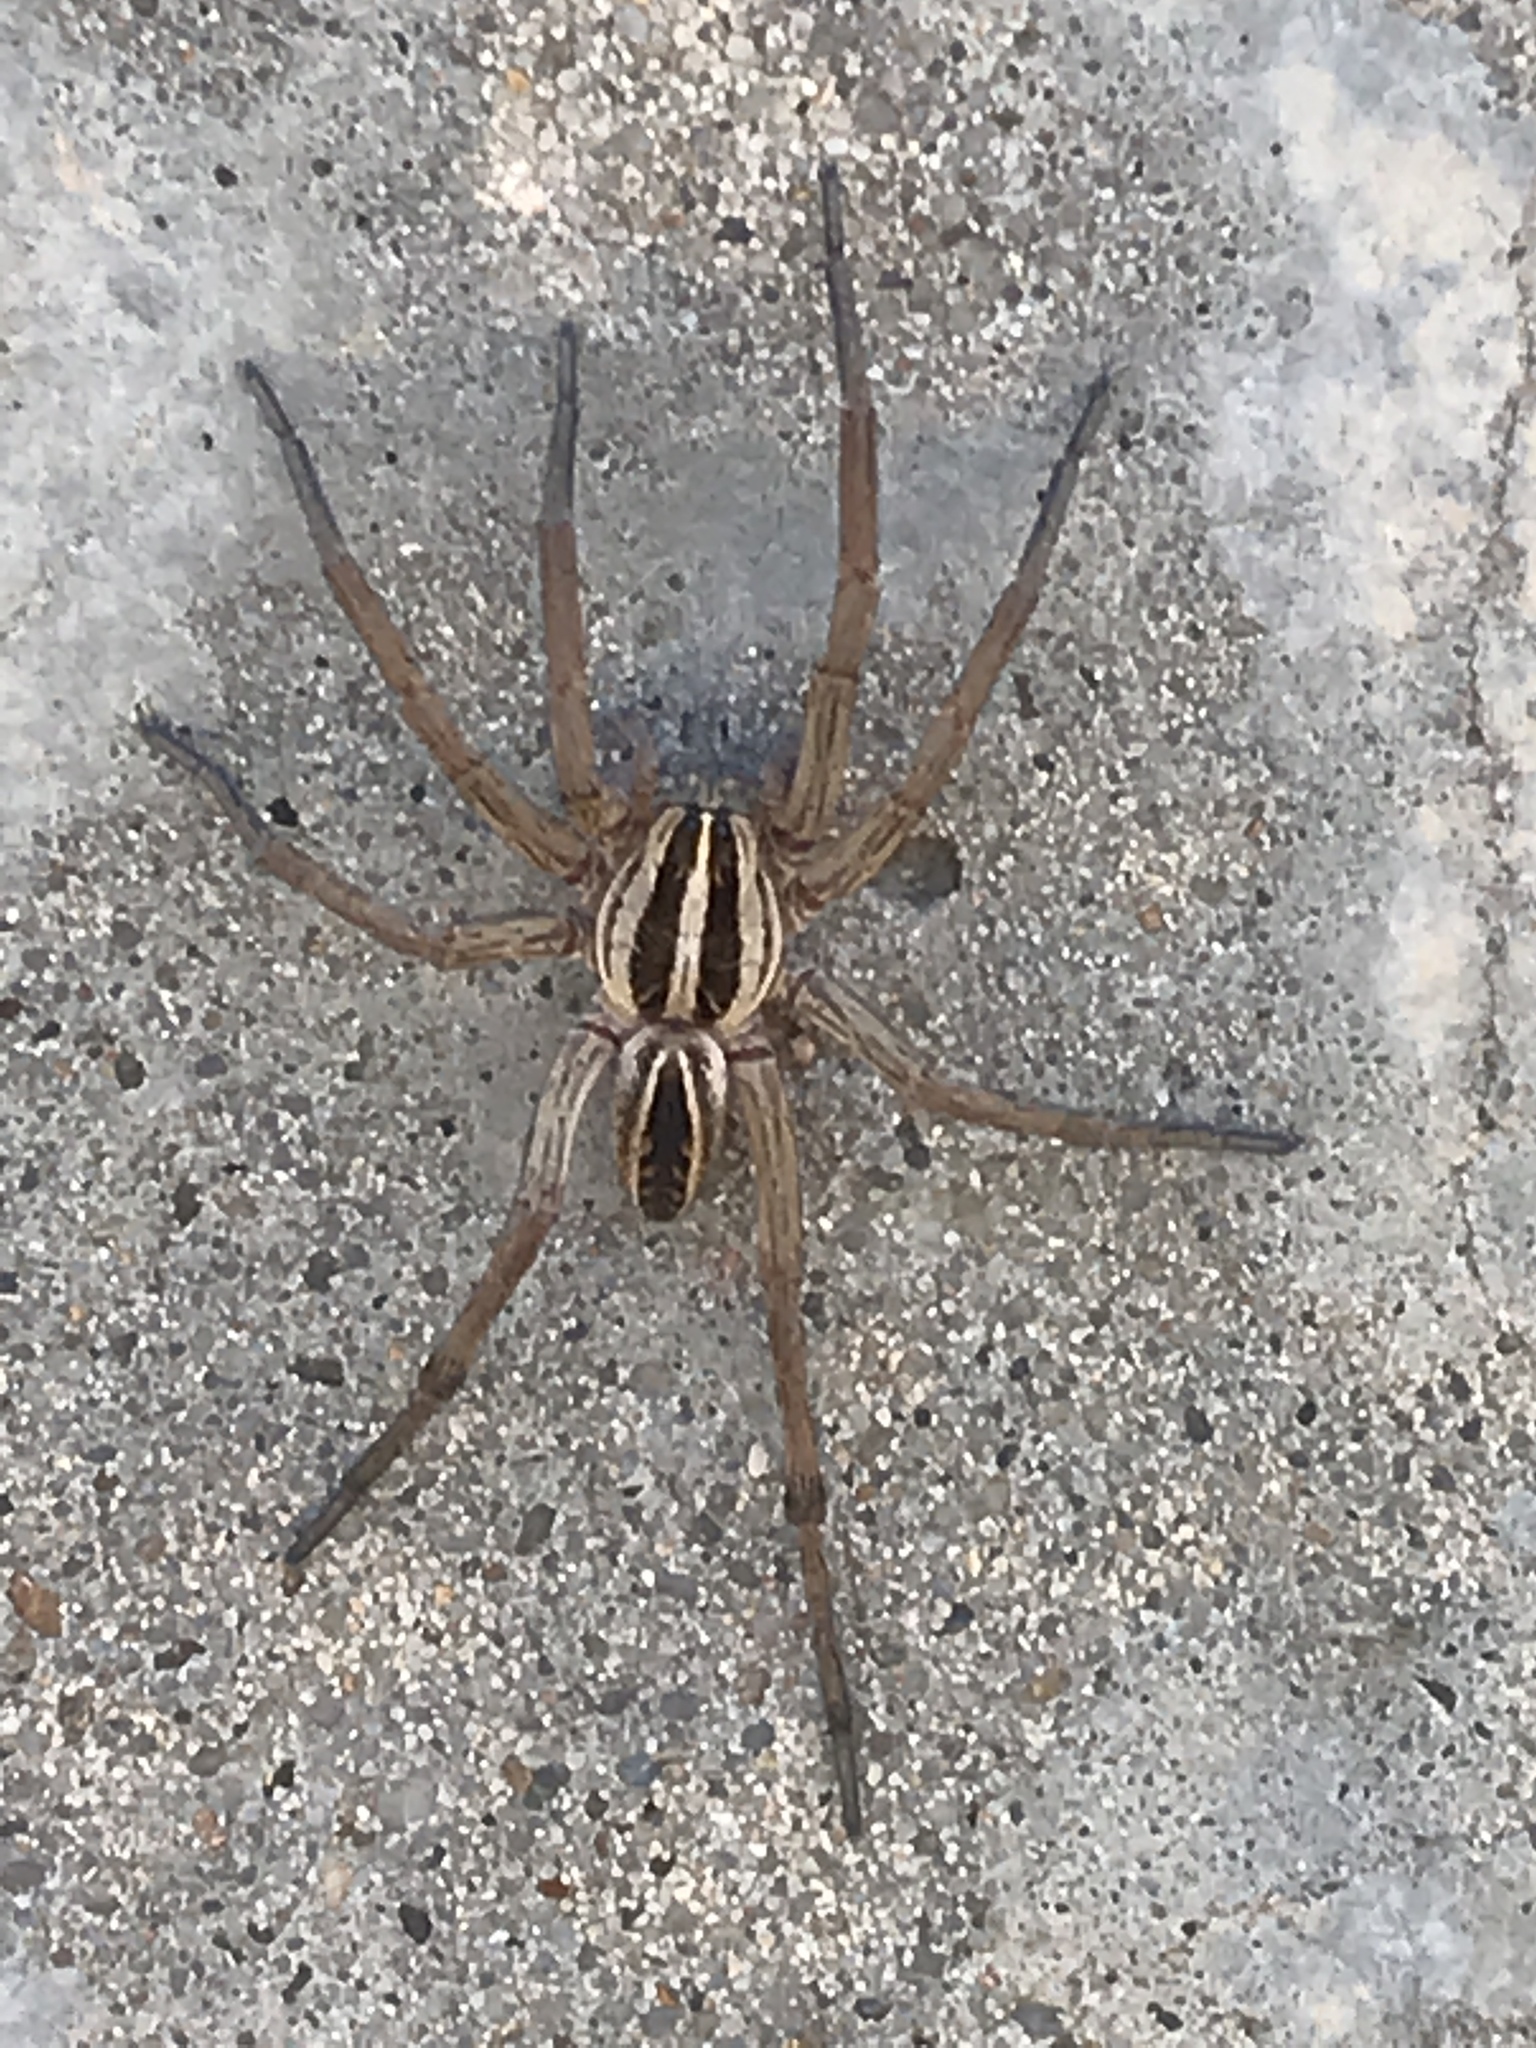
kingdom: Animalia
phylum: Arthropoda
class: Arachnida
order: Araneae
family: Lycosidae
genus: Rabidosa
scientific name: Rabidosa rabida
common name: Rabid wolf spider
